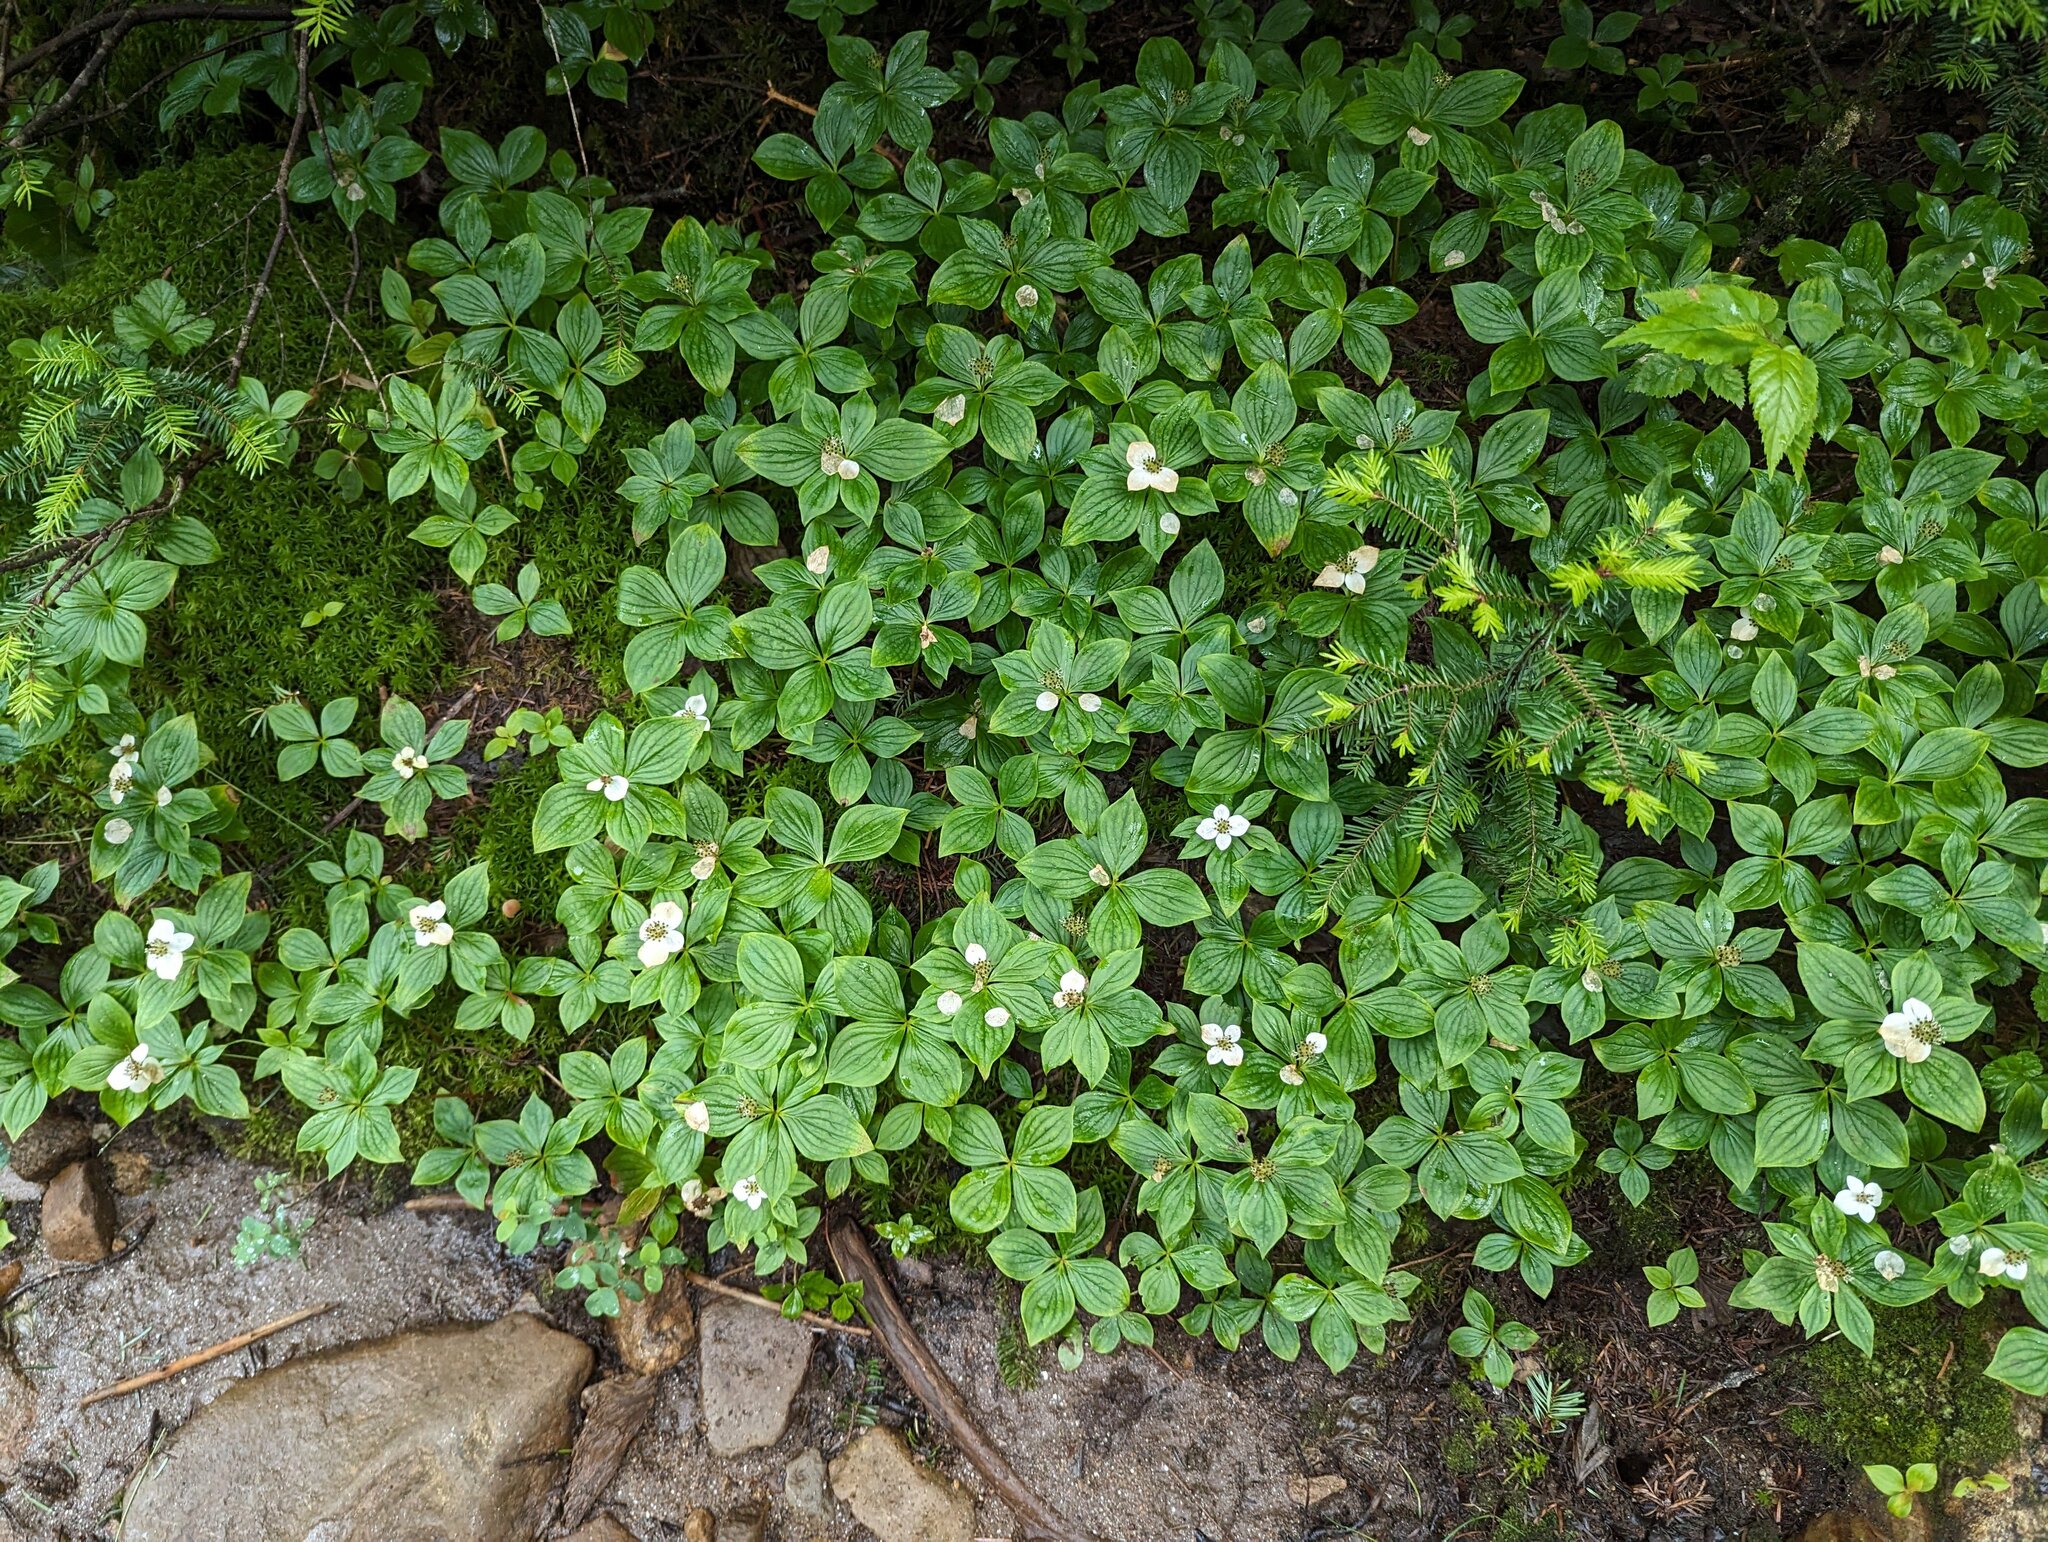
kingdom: Plantae
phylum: Tracheophyta
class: Magnoliopsida
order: Cornales
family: Cornaceae
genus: Cornus
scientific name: Cornus canadensis
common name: Creeping dogwood
